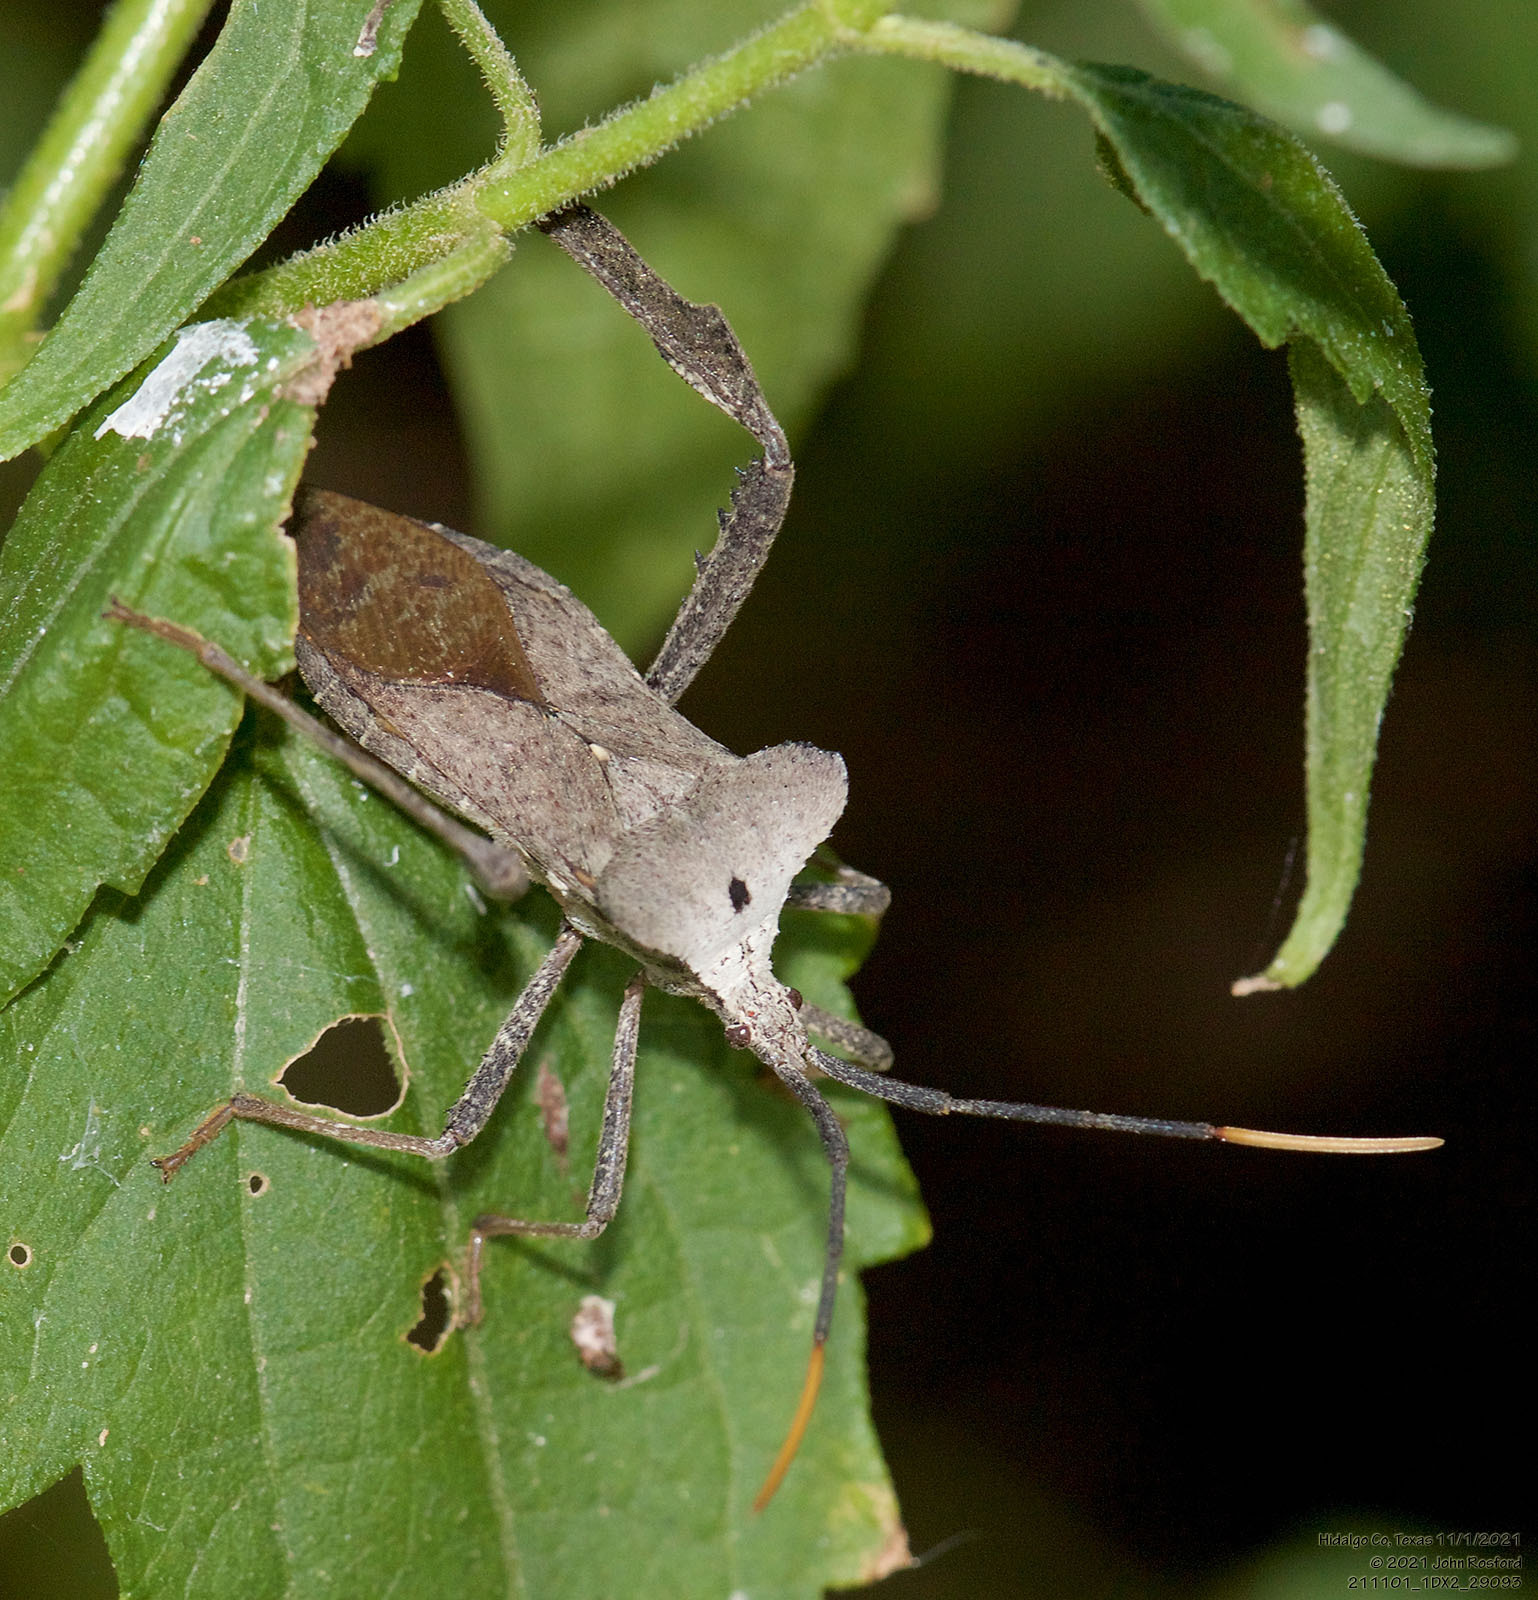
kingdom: Animalia
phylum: Arthropoda
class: Insecta
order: Hemiptera
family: Coreidae
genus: Acanthocephala
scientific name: Acanthocephala alata
